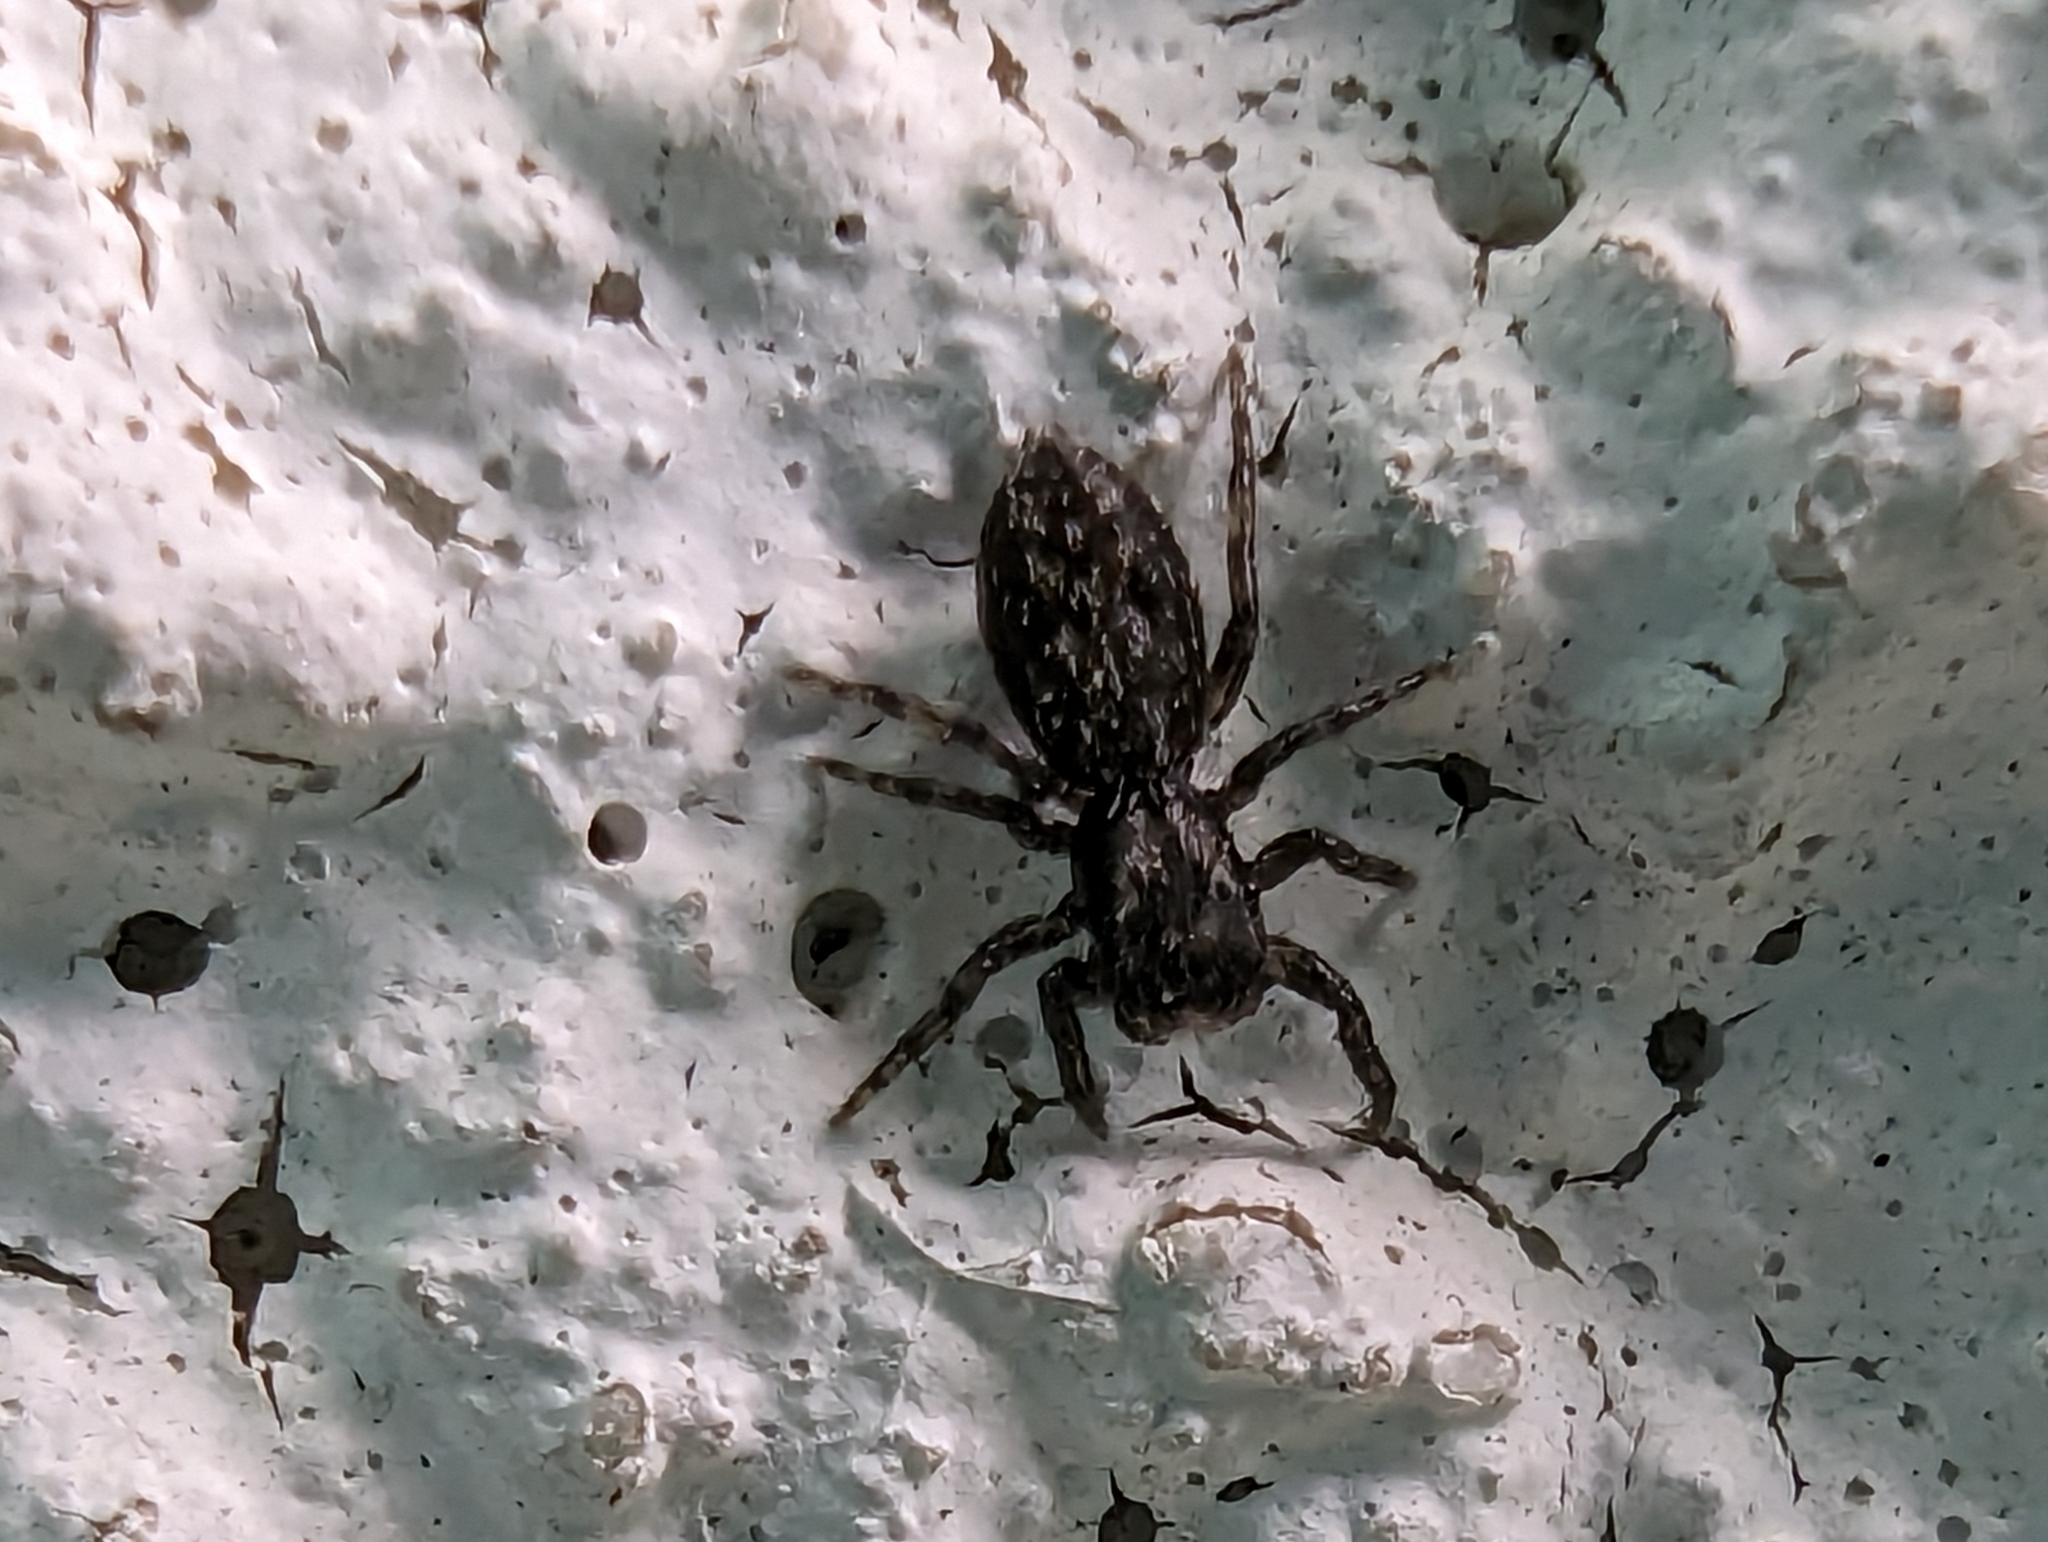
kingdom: Animalia
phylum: Arthropoda
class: Arachnida
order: Araneae
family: Salticidae
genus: Platycryptus
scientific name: Platycryptus californicus
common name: Jumping spiders
